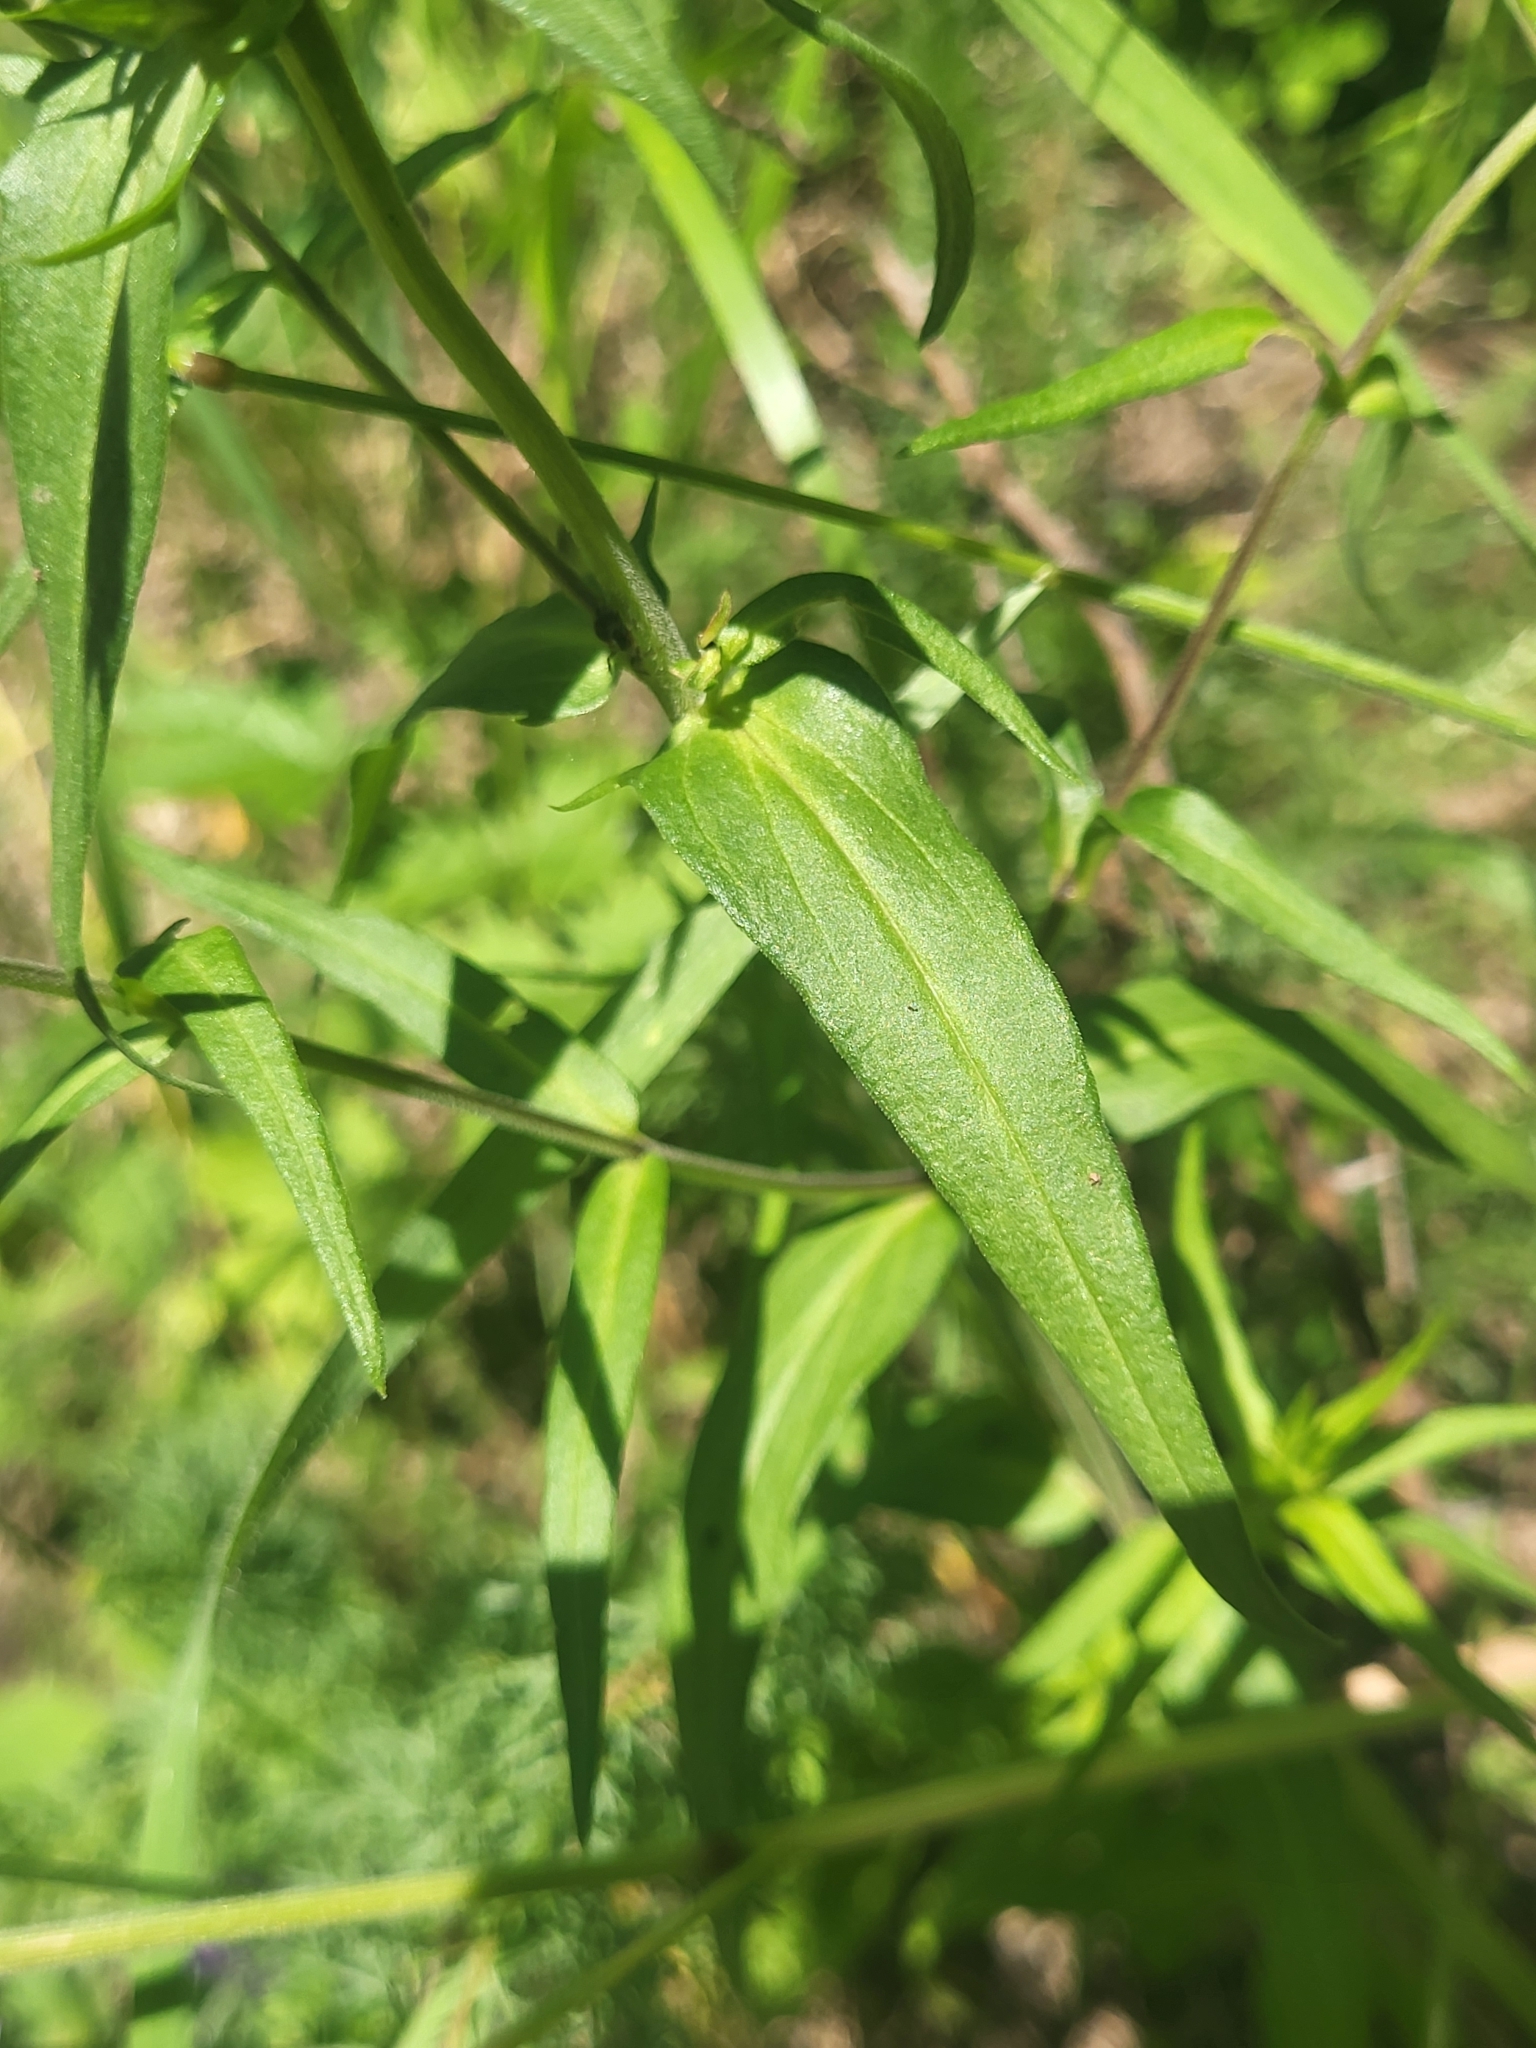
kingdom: Plantae
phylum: Tracheophyta
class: Magnoliopsida
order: Lamiales
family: Orobanchaceae
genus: Melampyrum
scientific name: Melampyrum arvense
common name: Field cow-wheat
